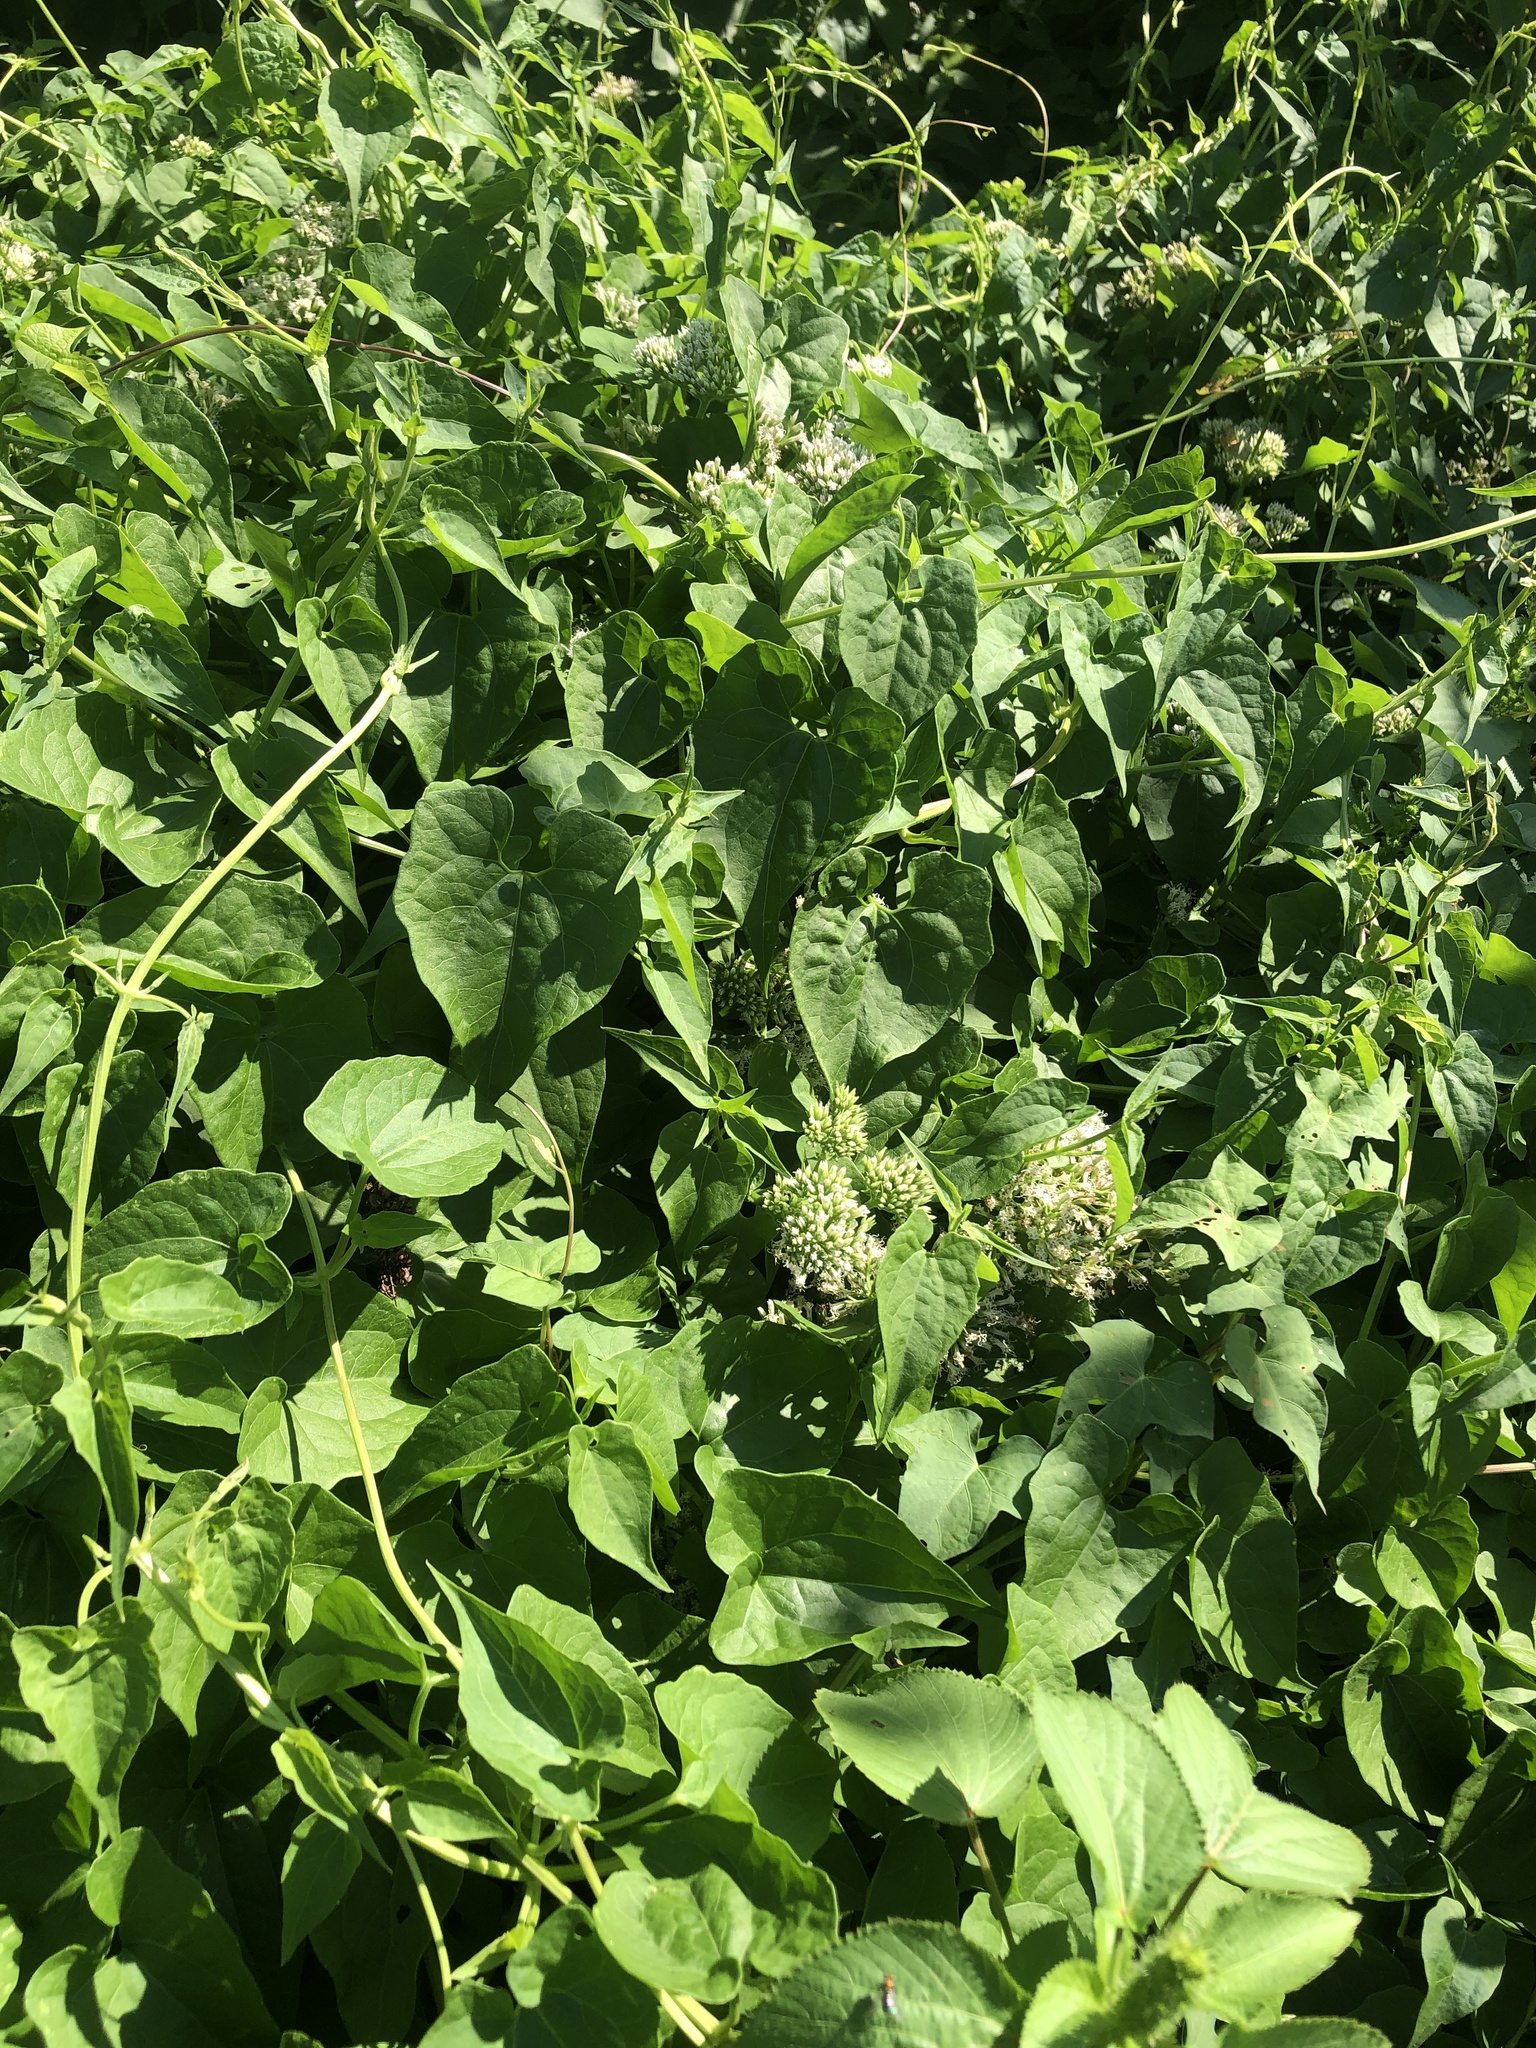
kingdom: Plantae
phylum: Tracheophyta
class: Magnoliopsida
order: Asterales
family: Asteraceae
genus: Mikania
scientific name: Mikania scandens
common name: Climbing hempvine
